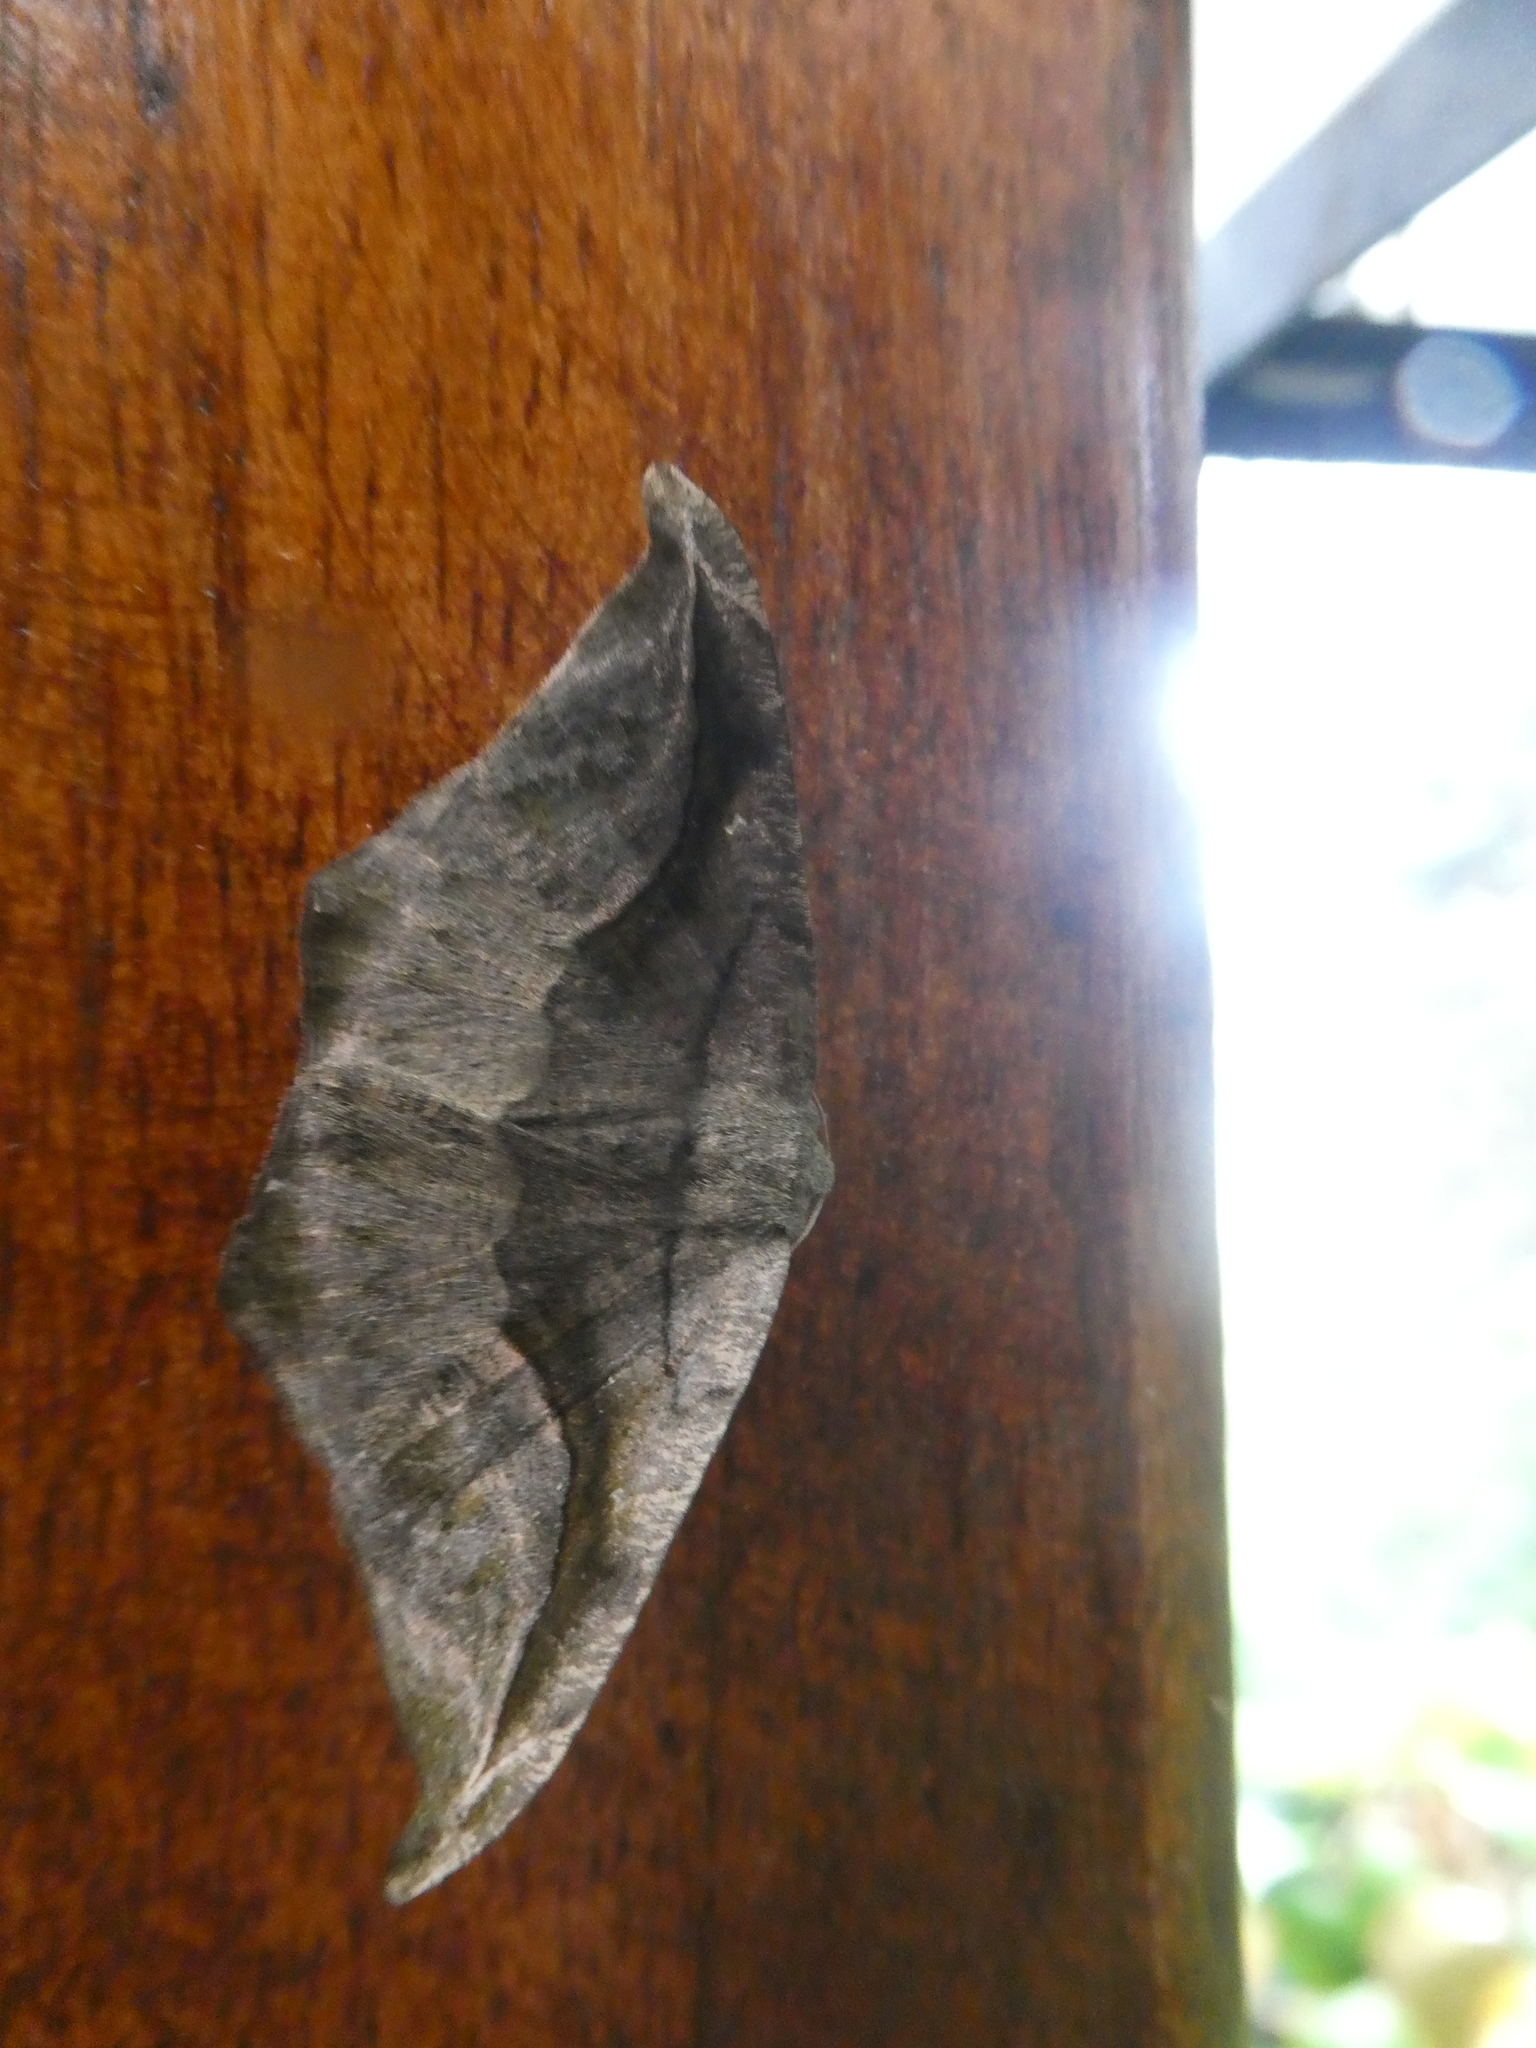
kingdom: Animalia
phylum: Arthropoda
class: Insecta
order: Lepidoptera
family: Geometridae
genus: Oxydia
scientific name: Oxydia scriptipennaria
